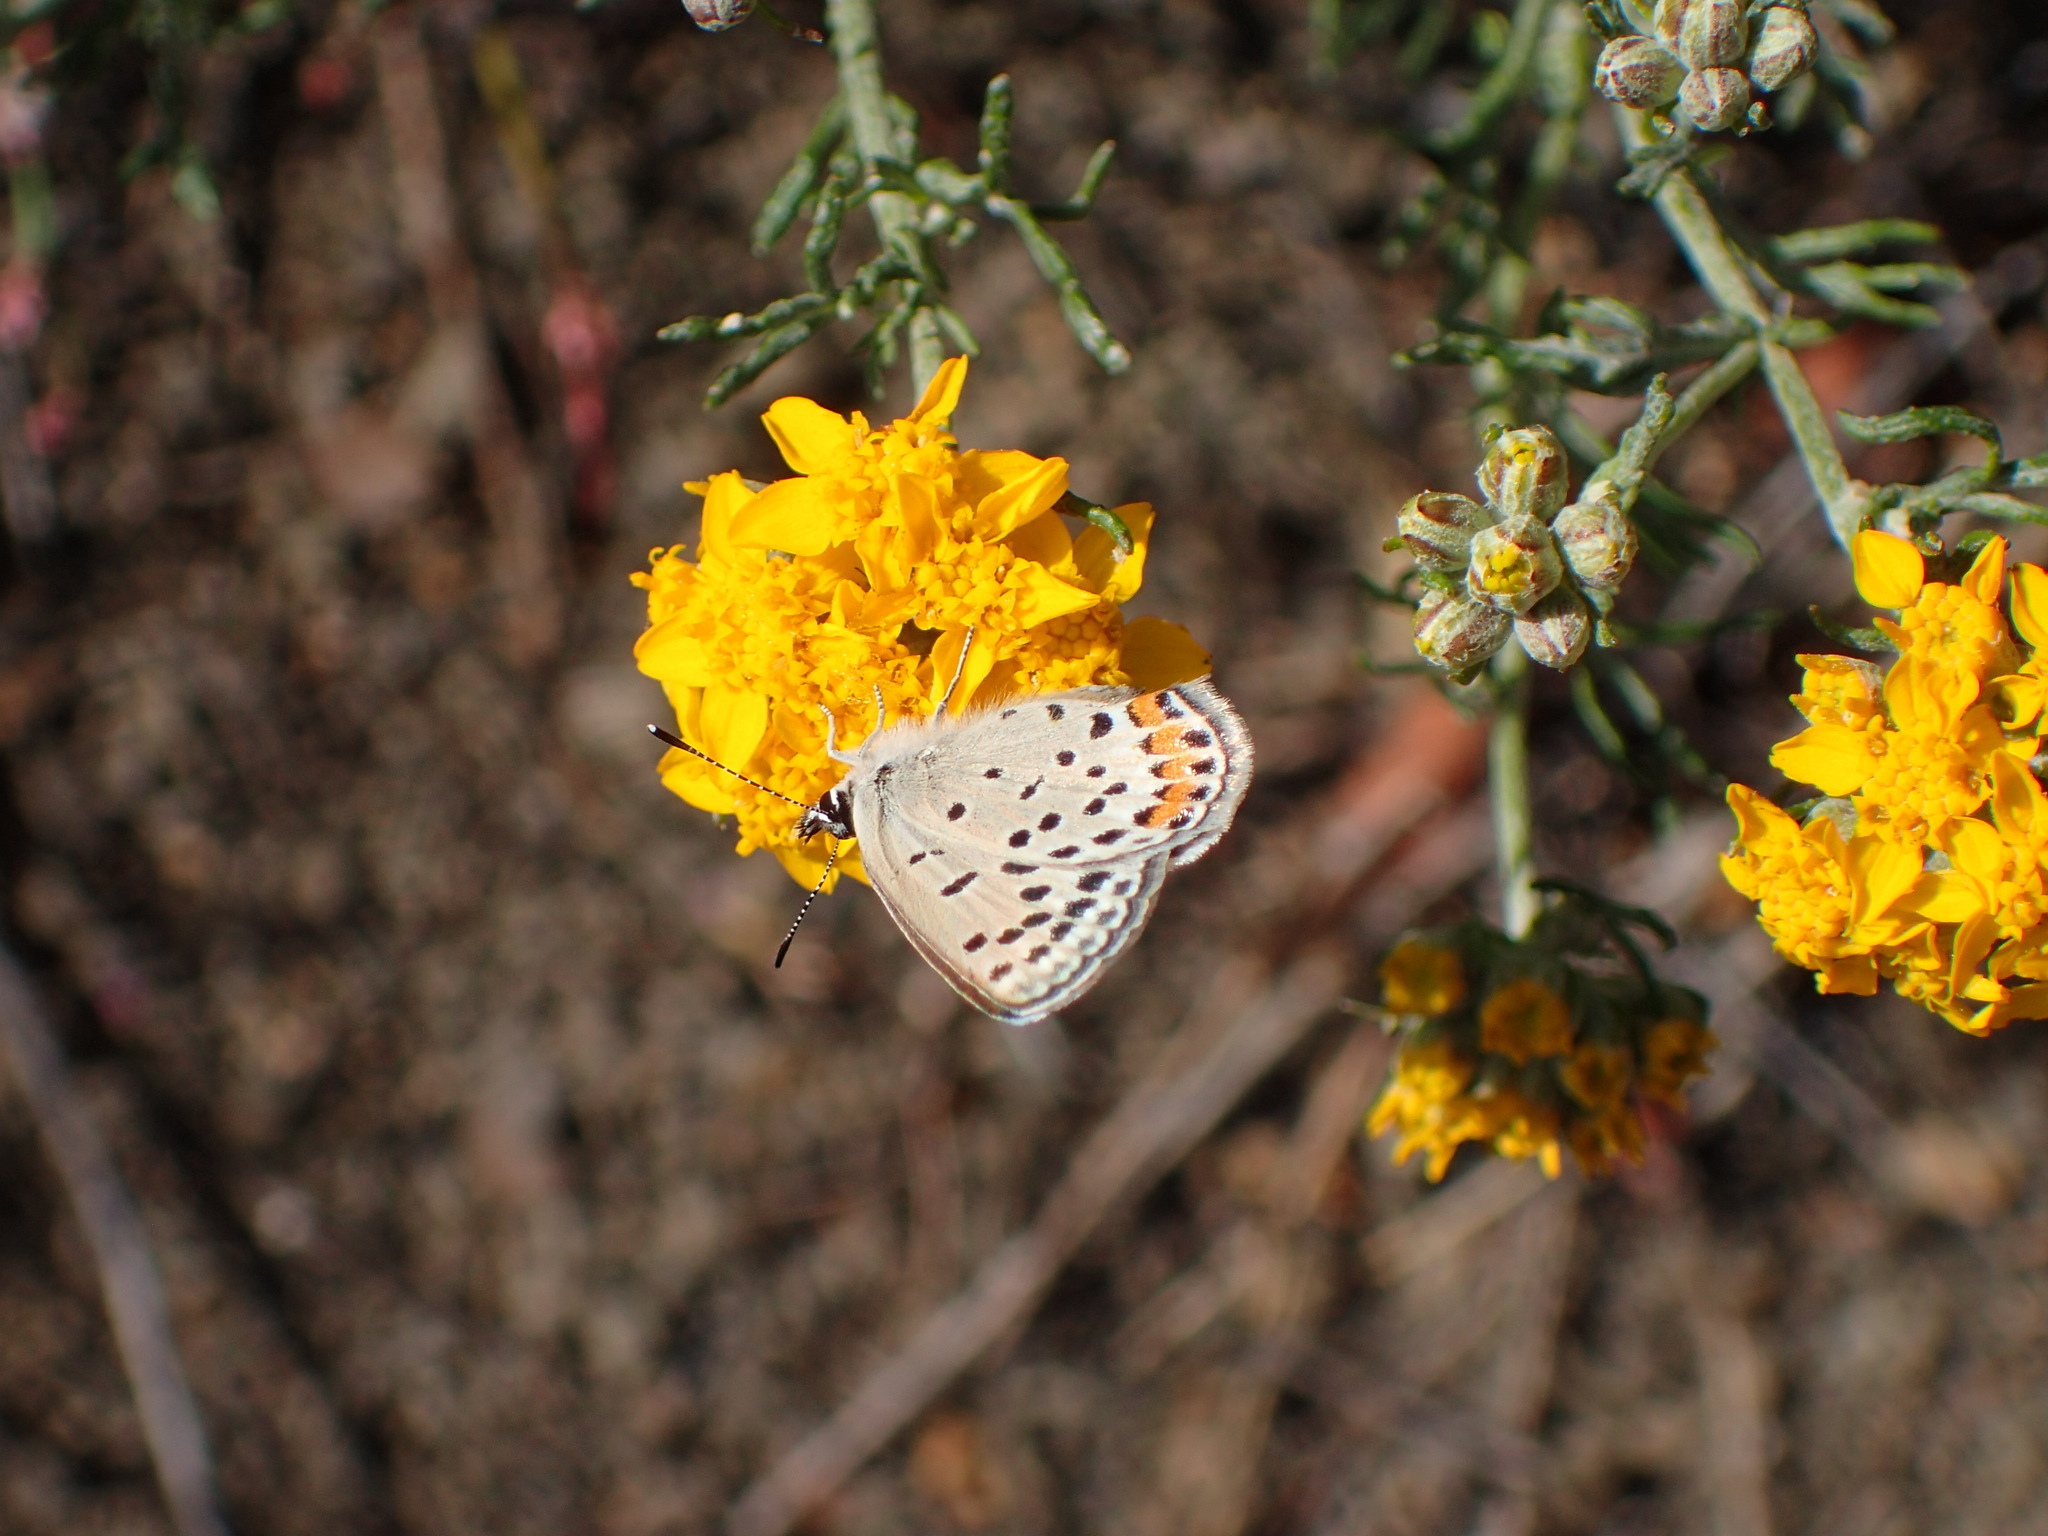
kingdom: Animalia
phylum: Arthropoda
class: Insecta
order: Lepidoptera
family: Lycaenidae
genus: Icaricia
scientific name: Icaricia acmon
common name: Acmon blue
